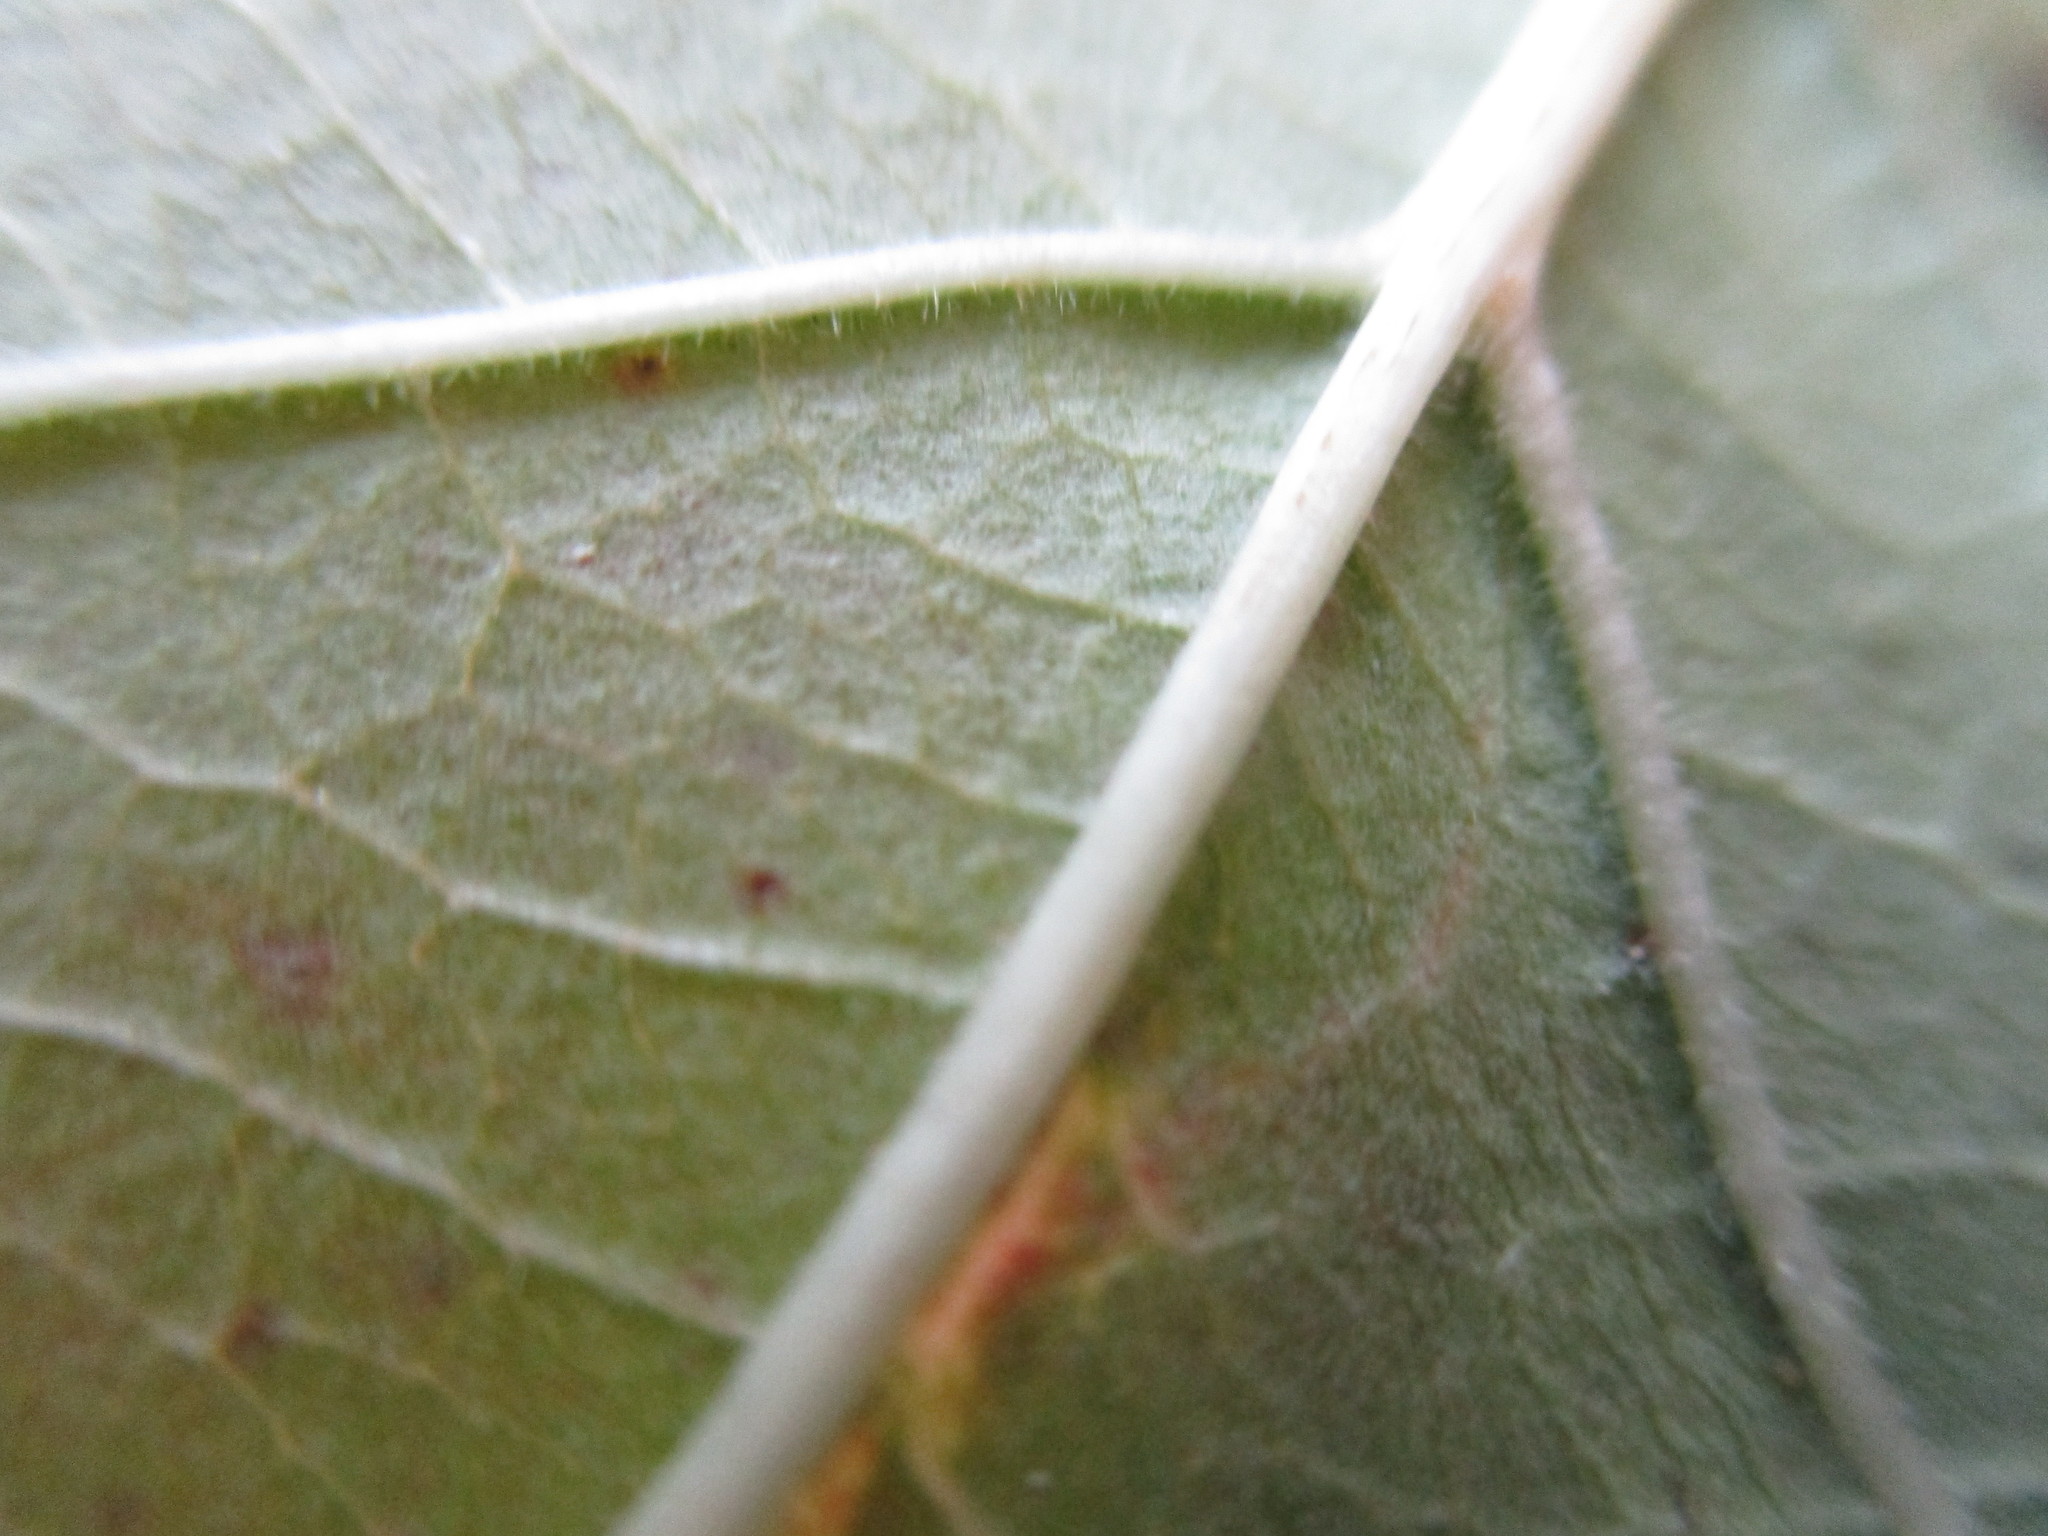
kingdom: Plantae
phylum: Tracheophyta
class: Magnoliopsida
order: Dipsacales
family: Viburnaceae
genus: Viburnum
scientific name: Viburnum opulus
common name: Guelder-rose
